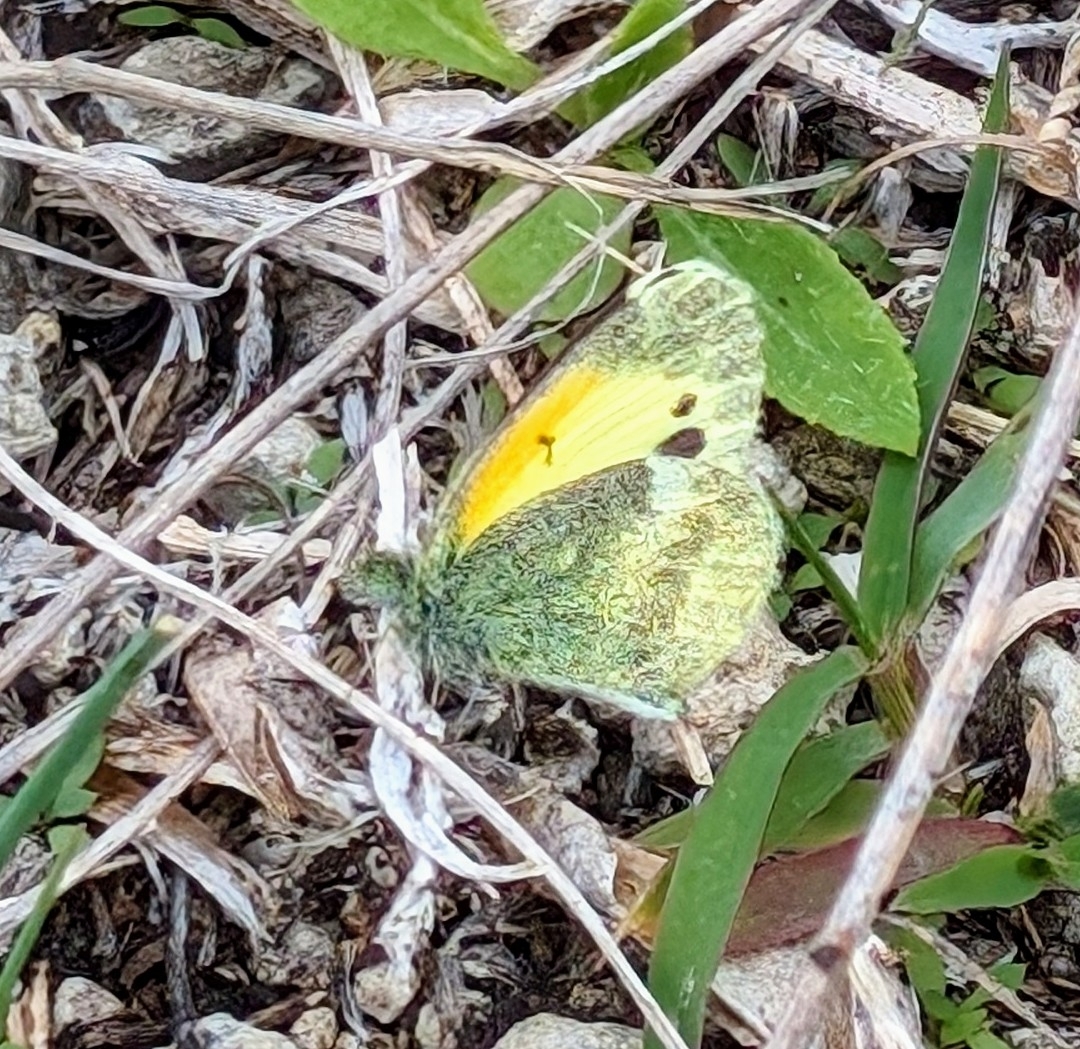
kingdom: Animalia
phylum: Arthropoda
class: Insecta
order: Lepidoptera
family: Pieridae
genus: Nathalis
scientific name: Nathalis iole
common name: Dainty sulphur
